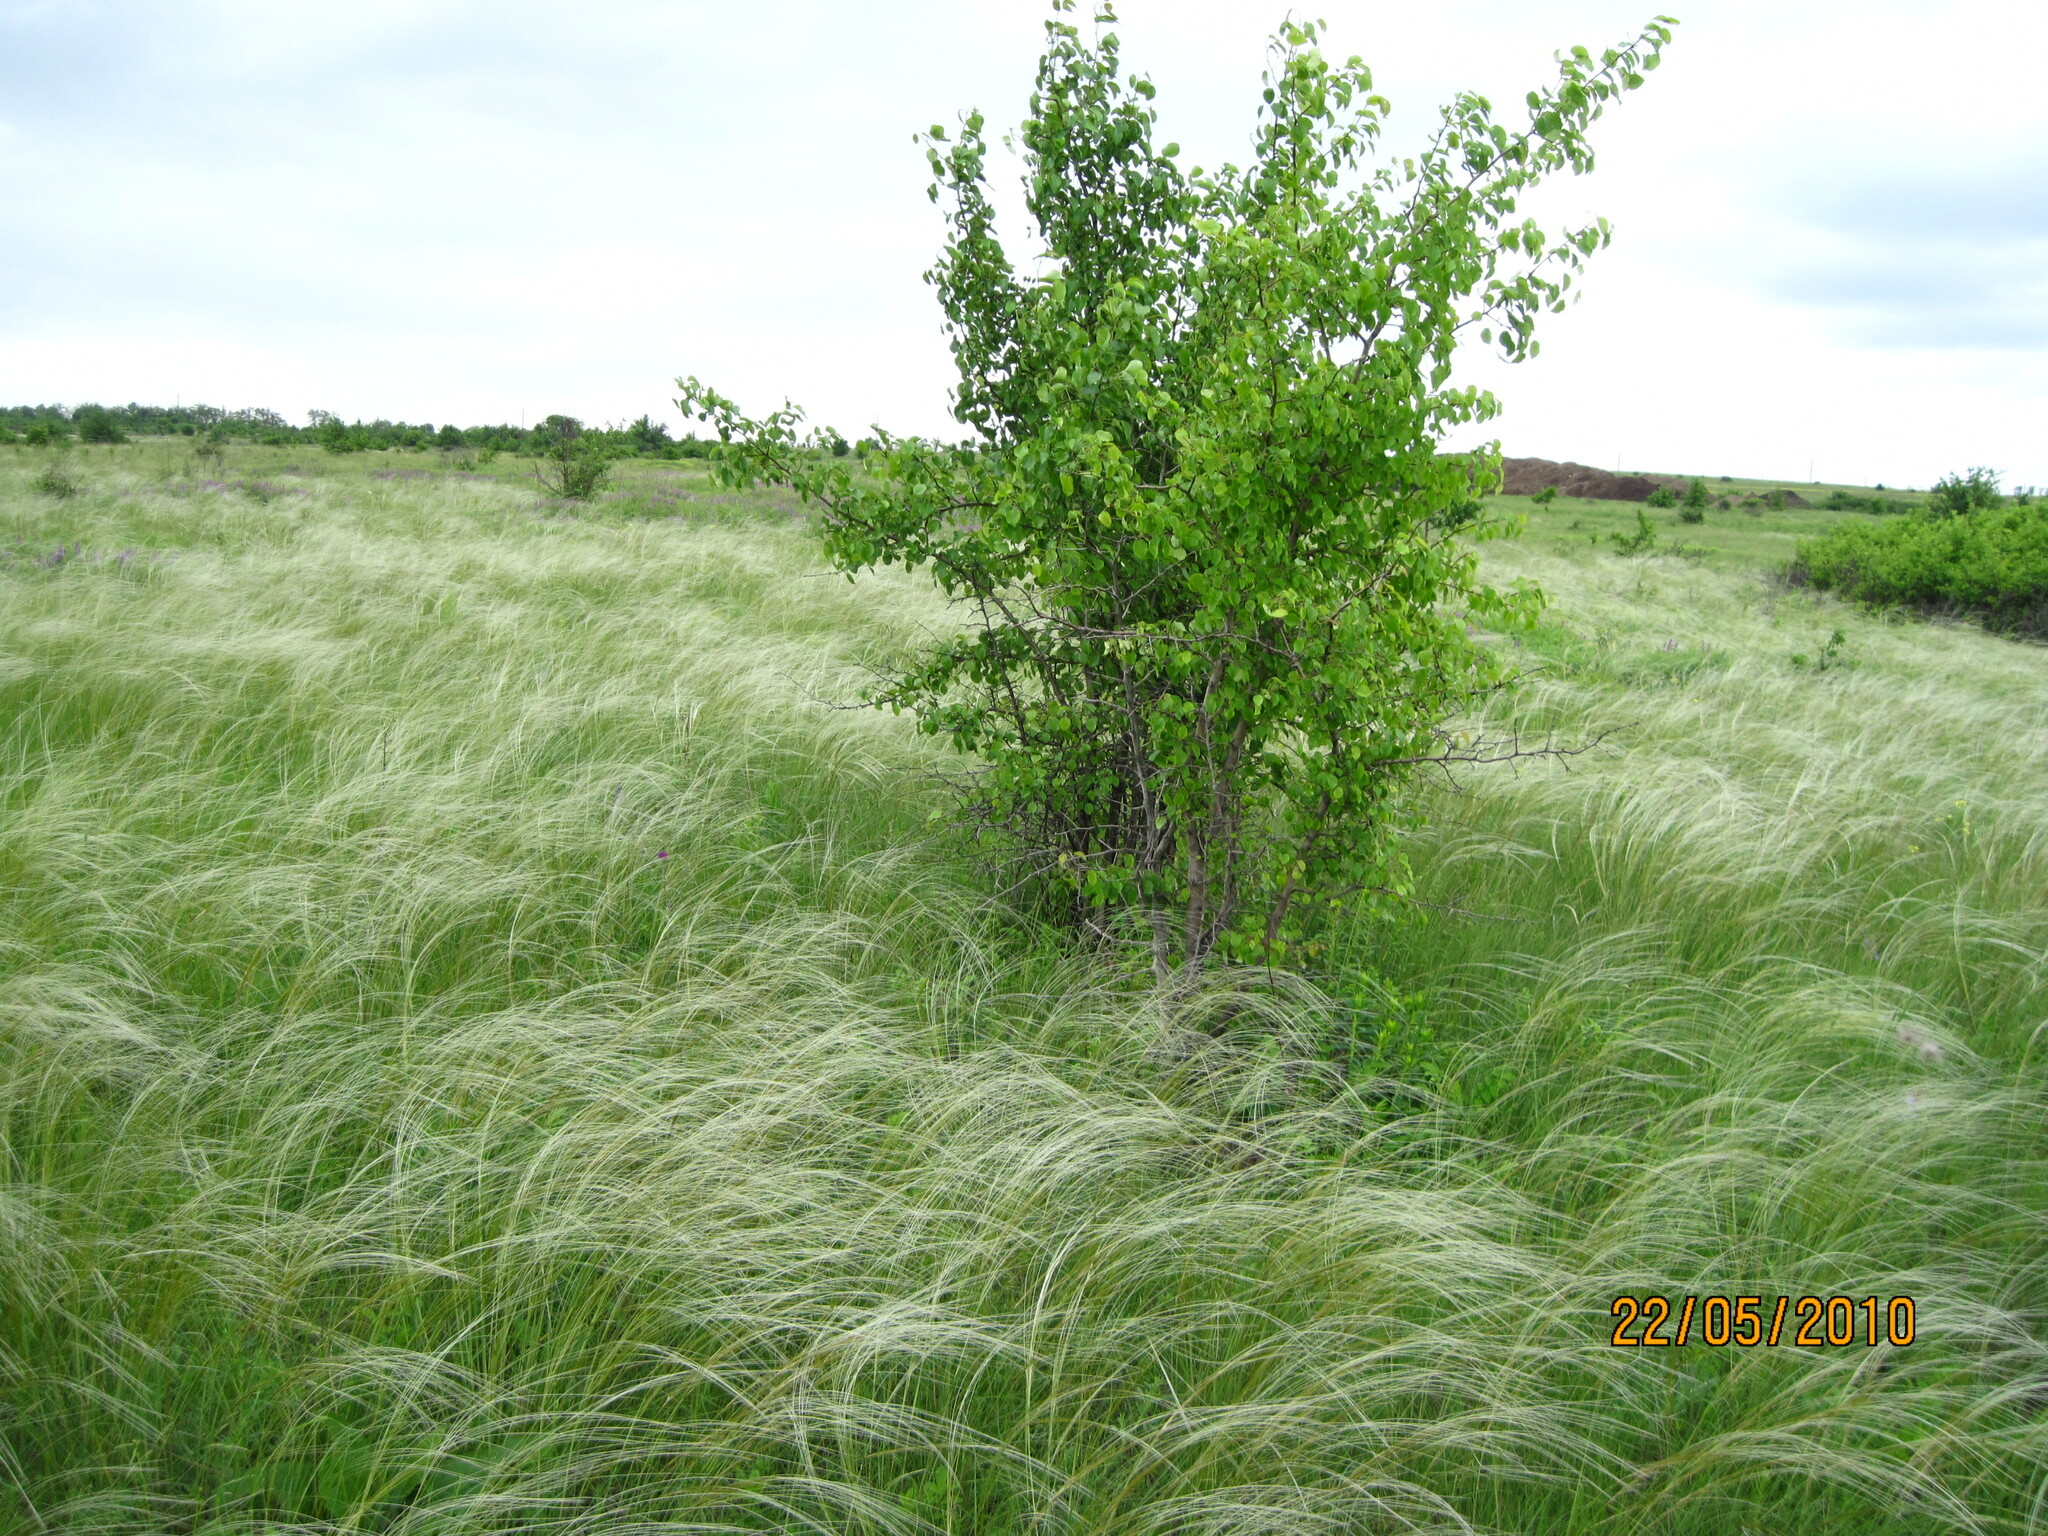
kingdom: Plantae
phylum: Tracheophyta
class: Magnoliopsida
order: Rosales
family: Rosaceae
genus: Pyrus
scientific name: Pyrus communis
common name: Pear
